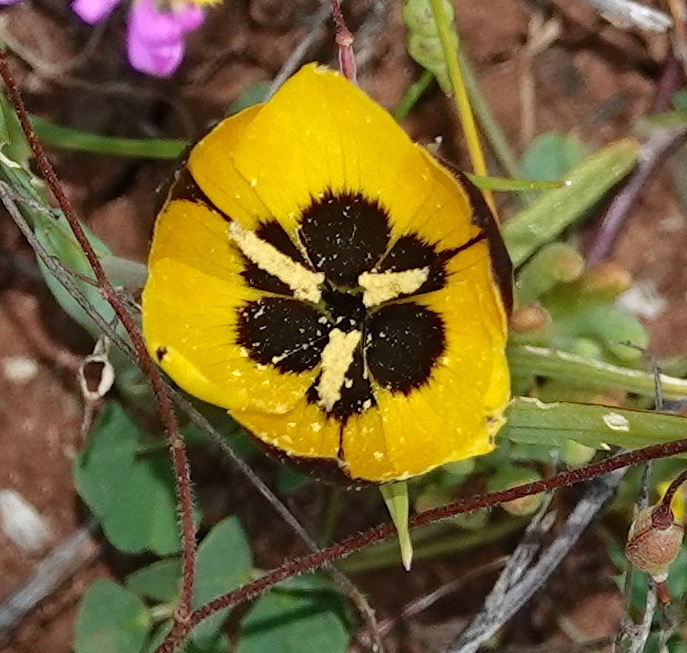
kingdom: Plantae
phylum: Tracheophyta
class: Liliopsida
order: Asparagales
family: Iridaceae
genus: Hesperantha
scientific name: Hesperantha vaginata
